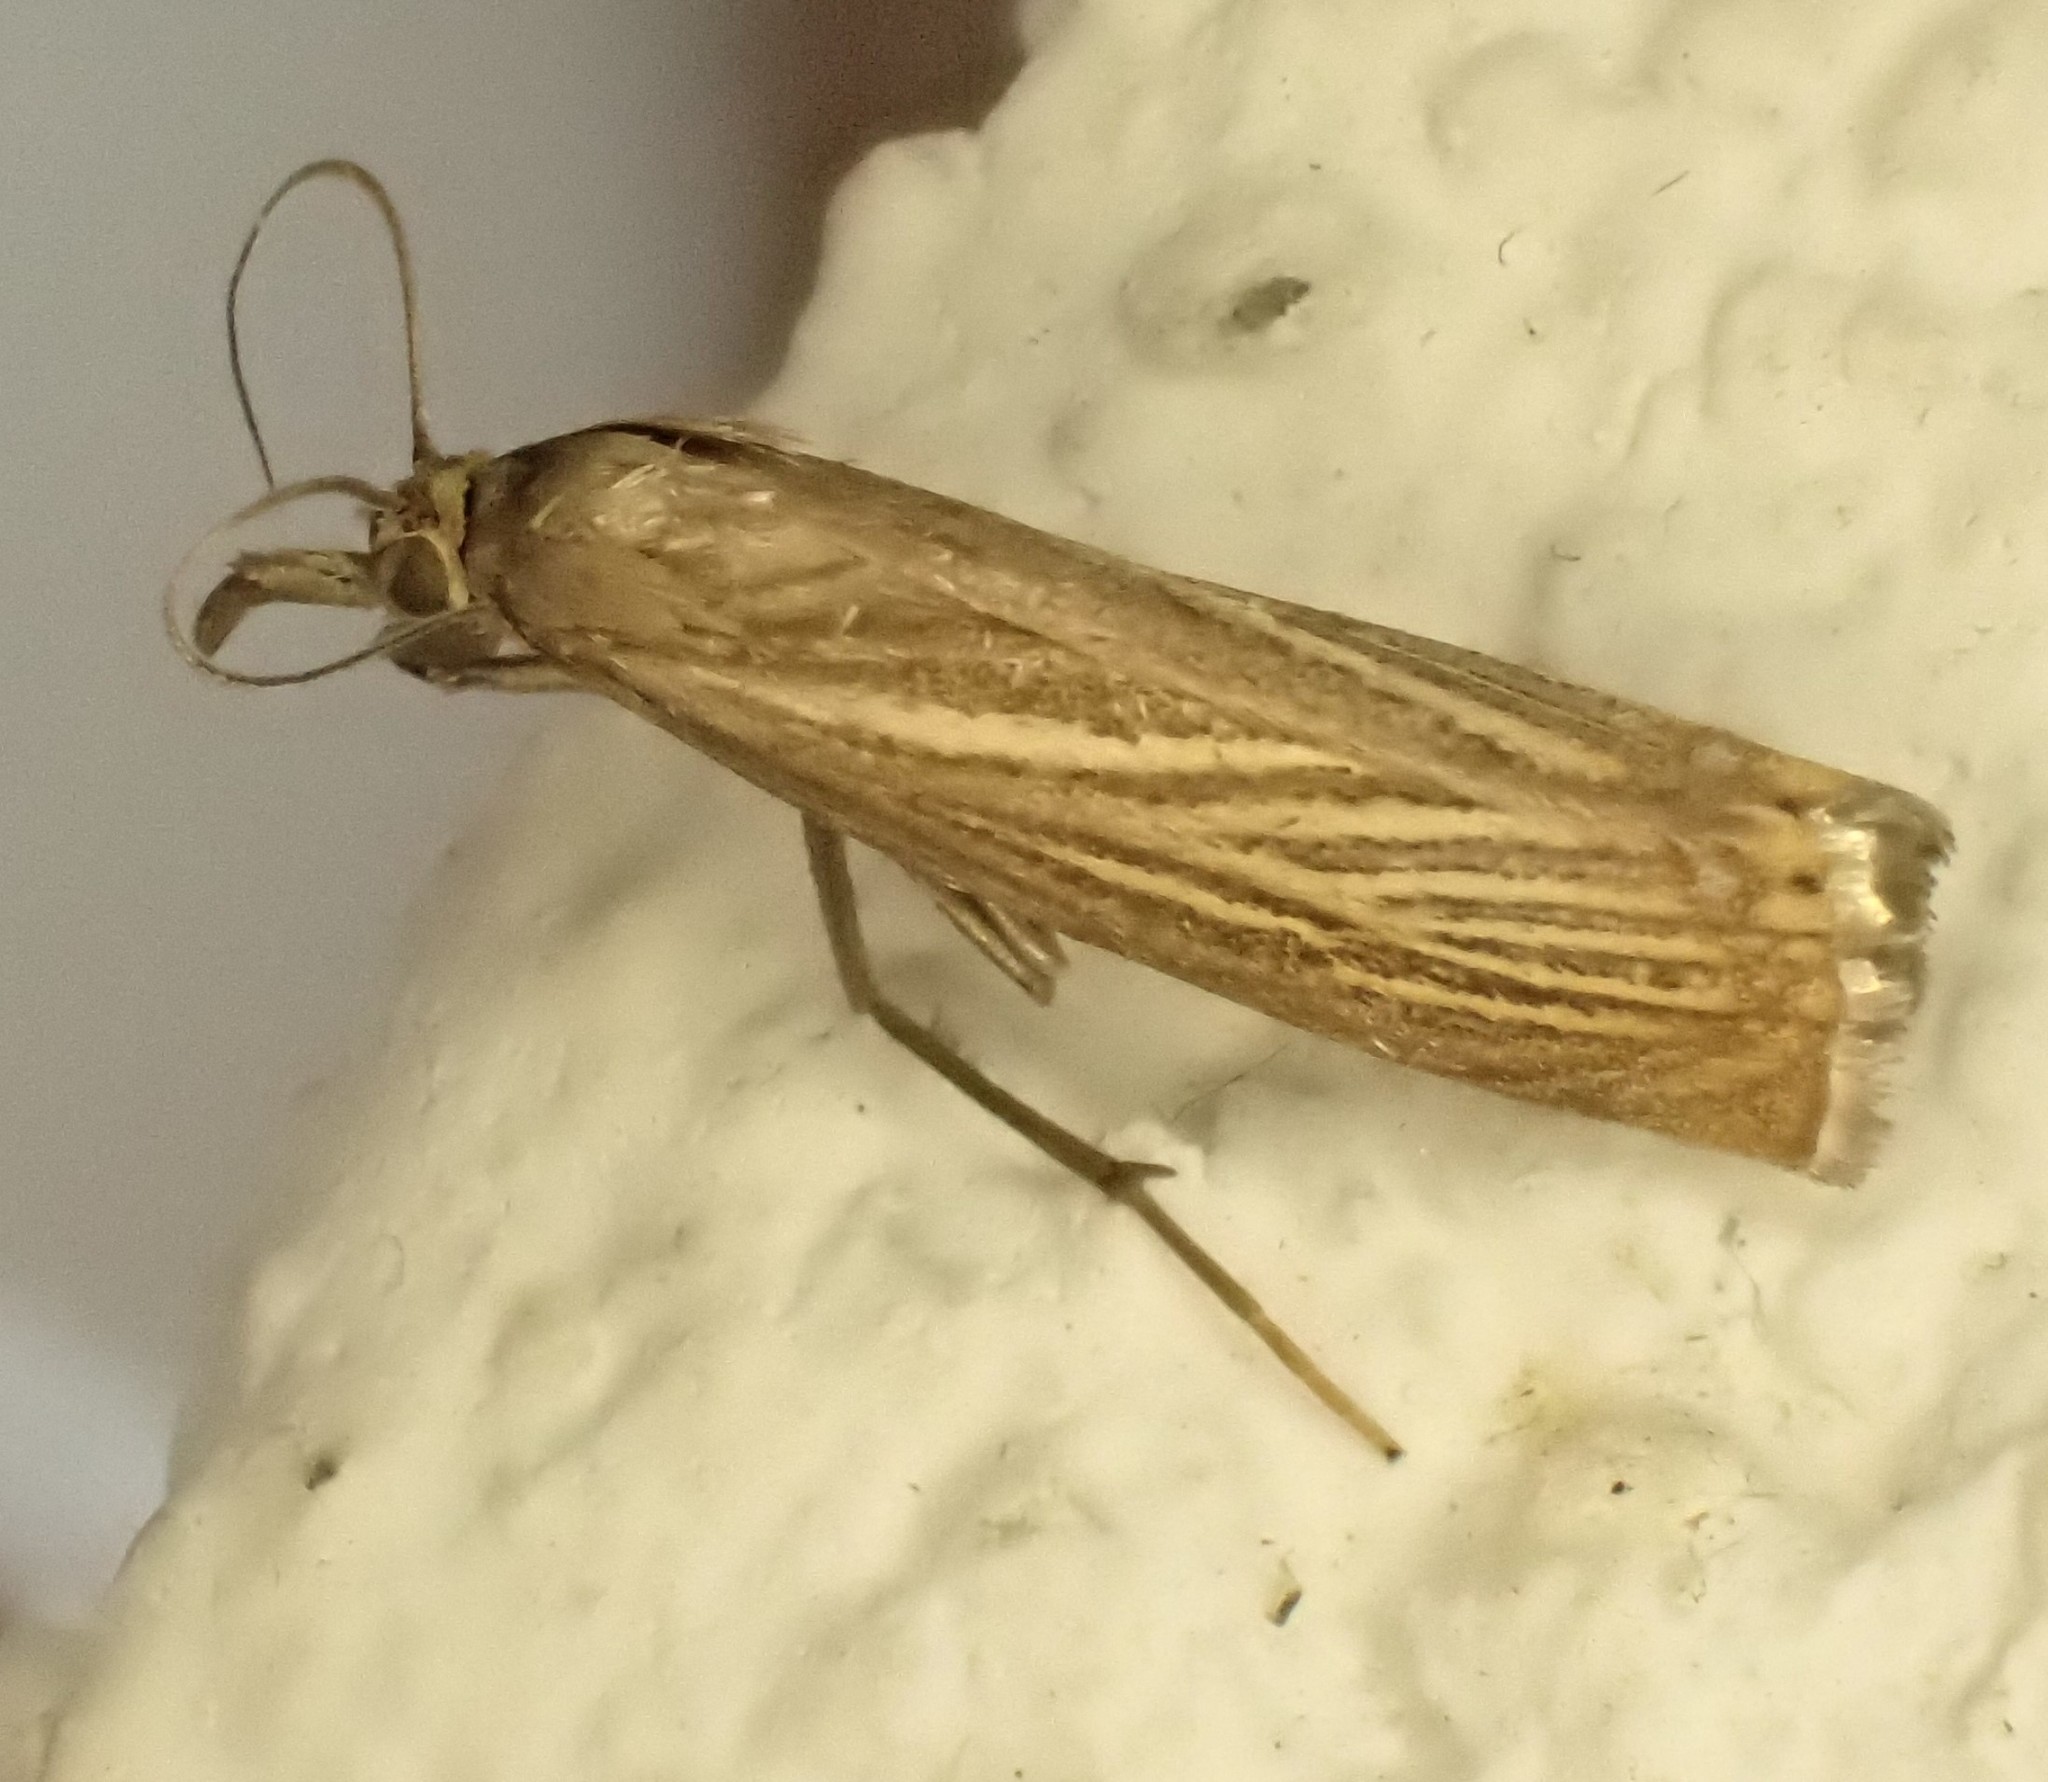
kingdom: Animalia
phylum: Arthropoda
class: Insecta
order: Lepidoptera
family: Crambidae
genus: Chrysoteuchia
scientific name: Chrysoteuchia culmella
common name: Garden grass-veneer
